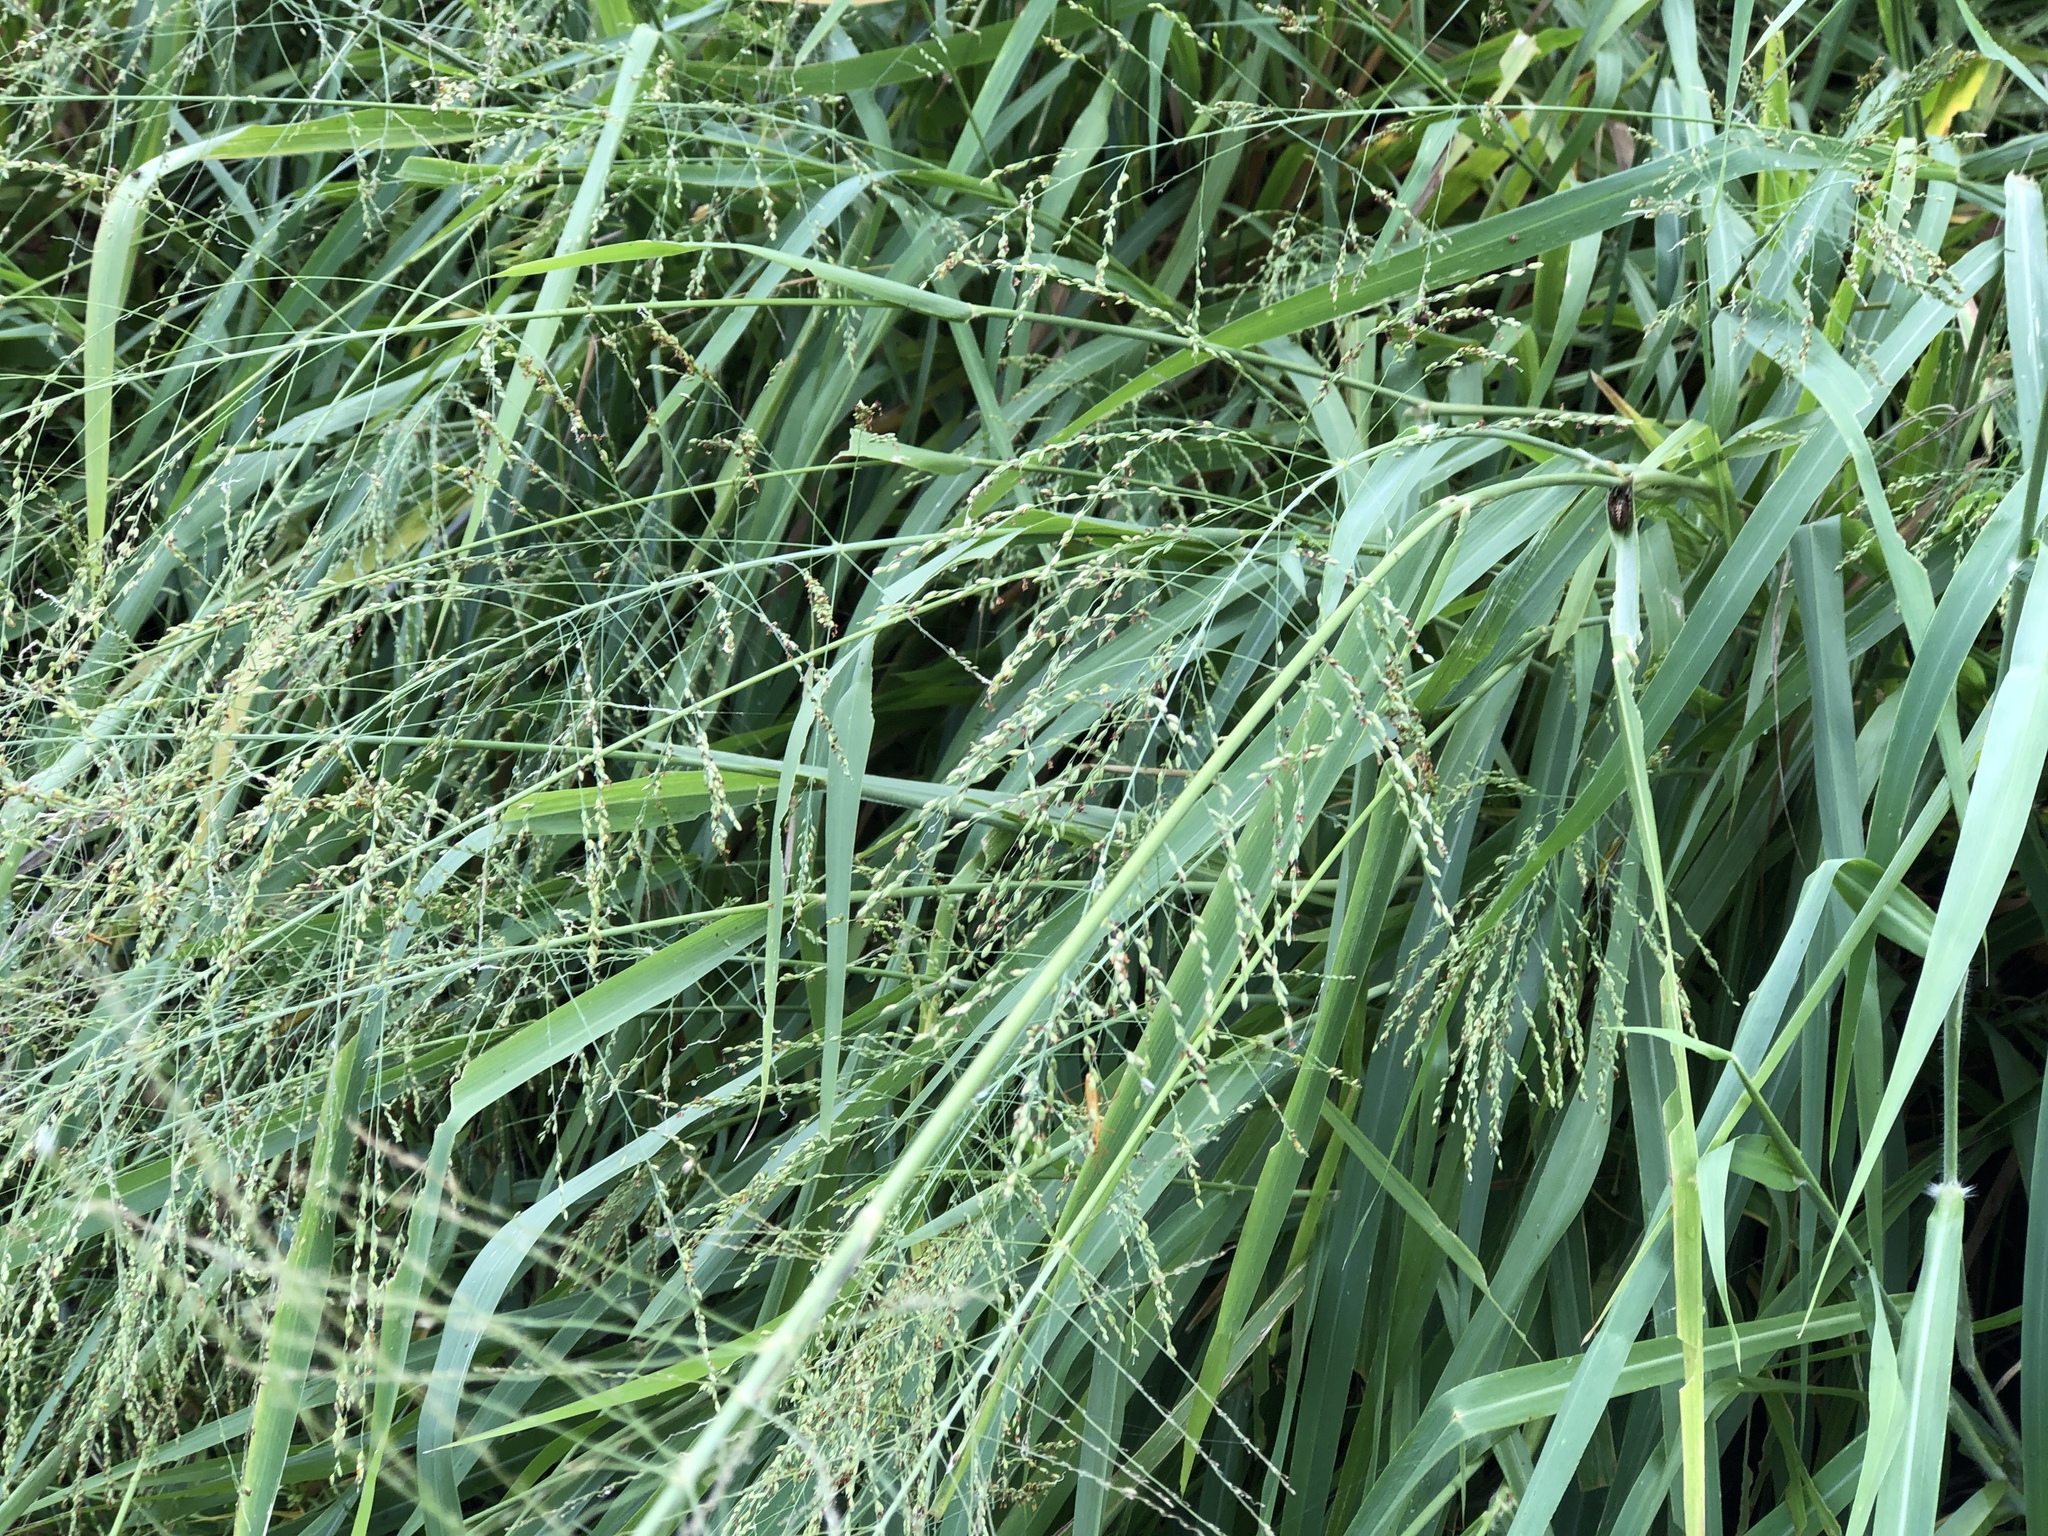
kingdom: Plantae
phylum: Tracheophyta
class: Liliopsida
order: Poales
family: Poaceae
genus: Megathyrsus
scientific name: Megathyrsus maximus
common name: Guineagrass
